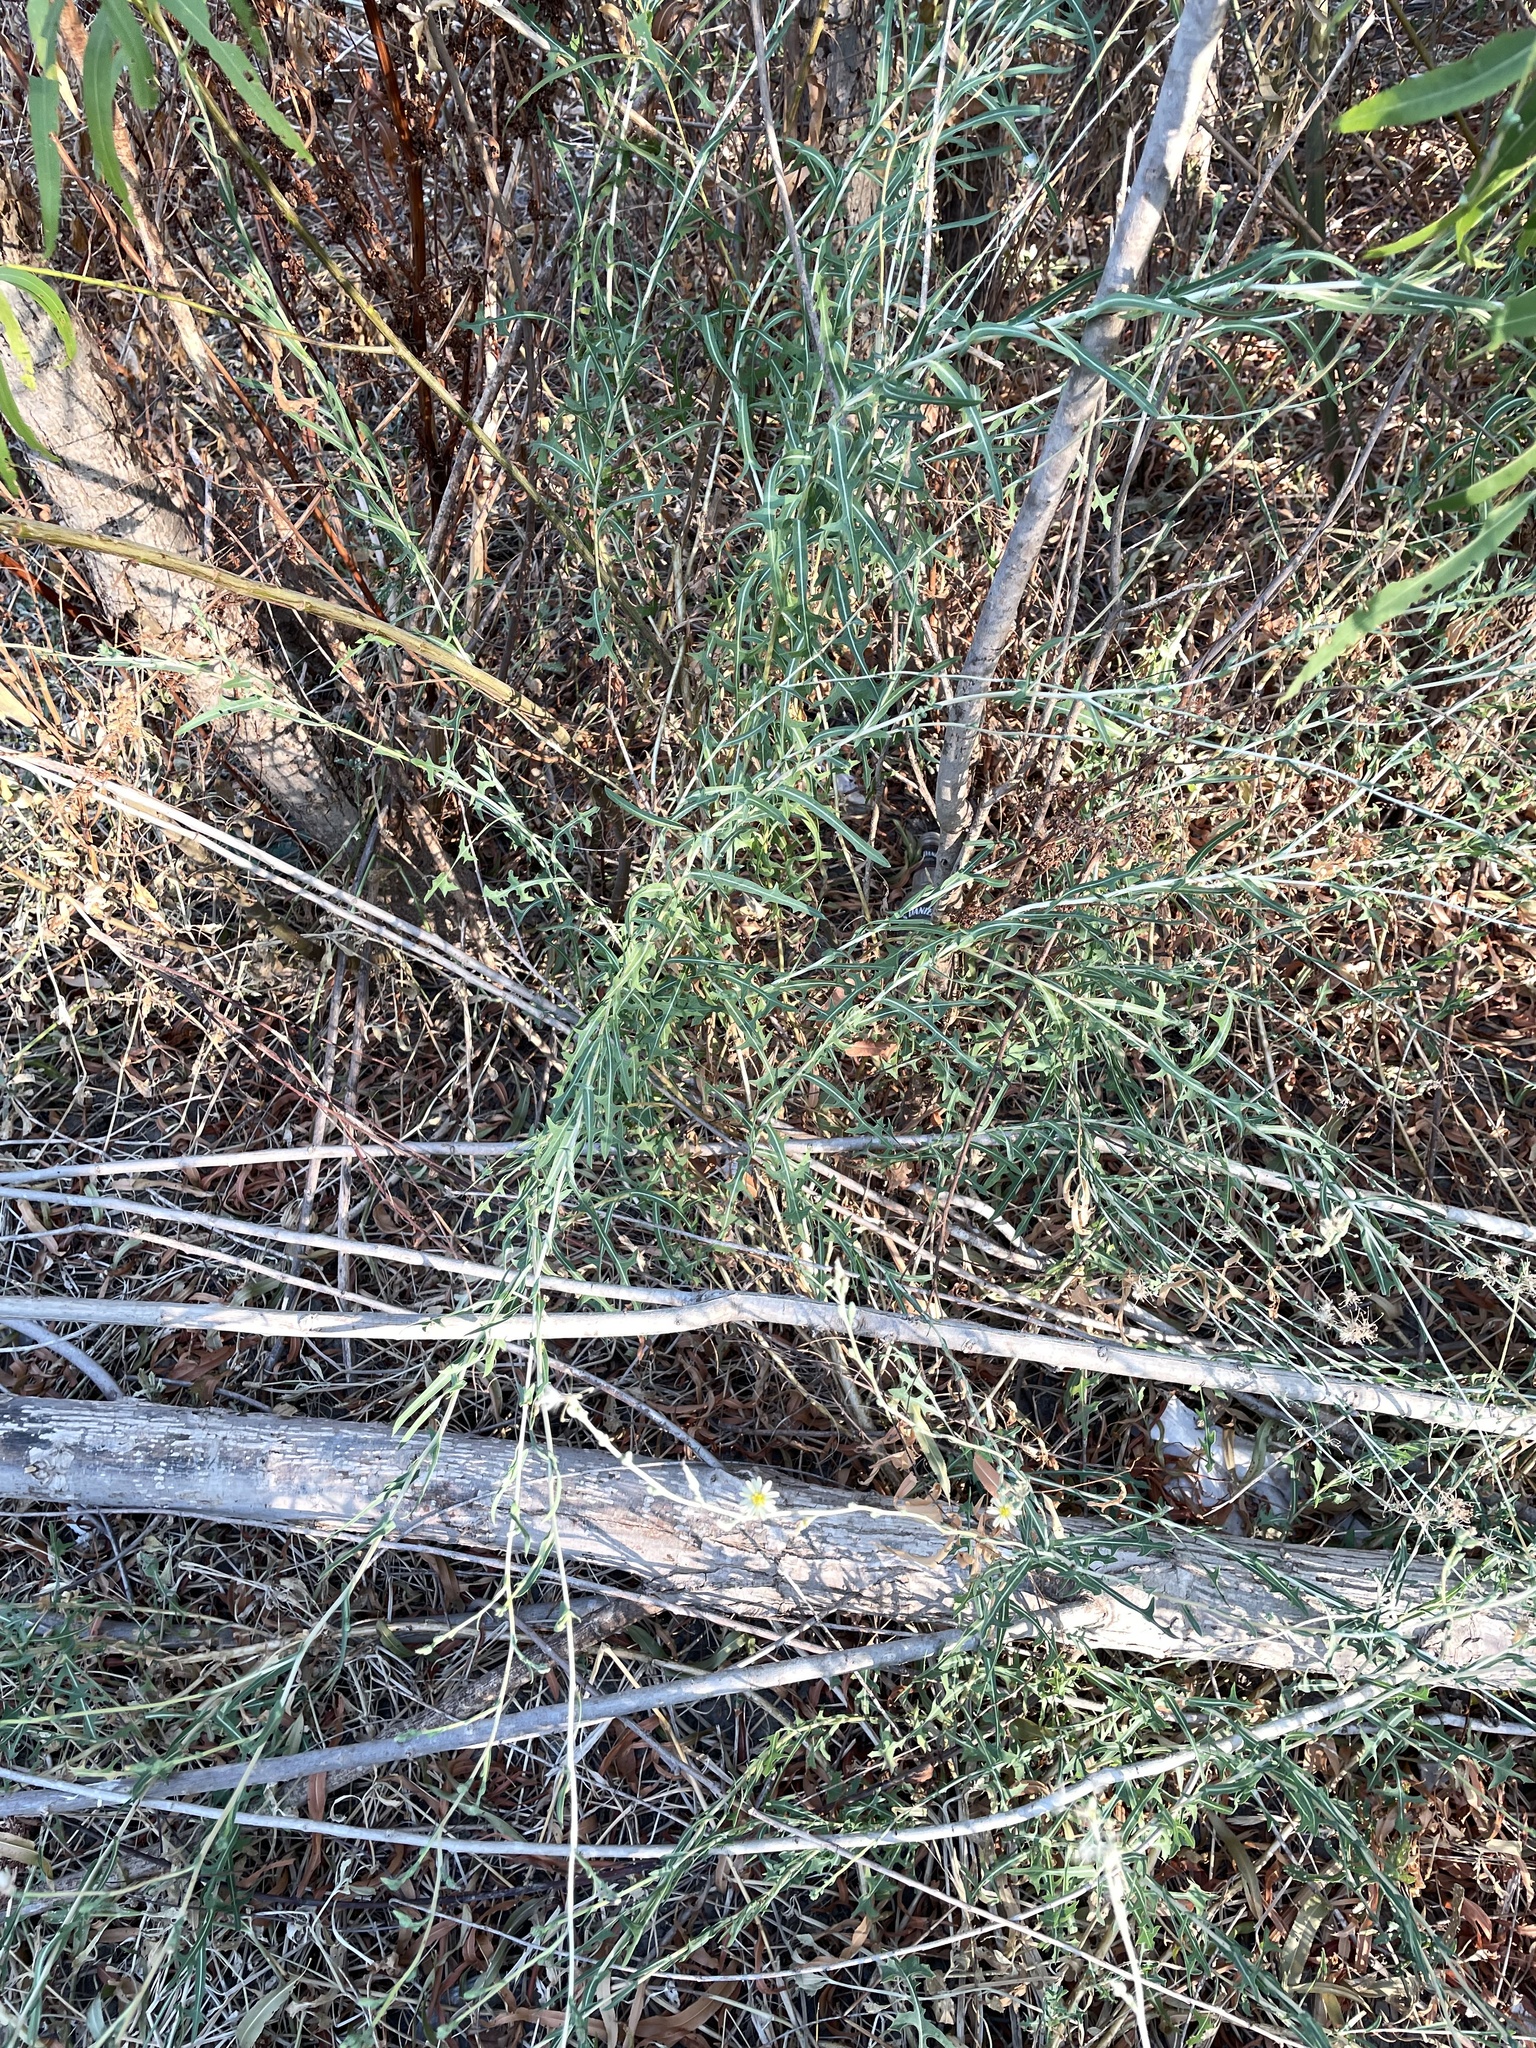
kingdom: Plantae
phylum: Tracheophyta
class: Magnoliopsida
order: Asterales
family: Asteraceae
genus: Lactuca
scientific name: Lactuca saligna
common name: Wild lettuce
